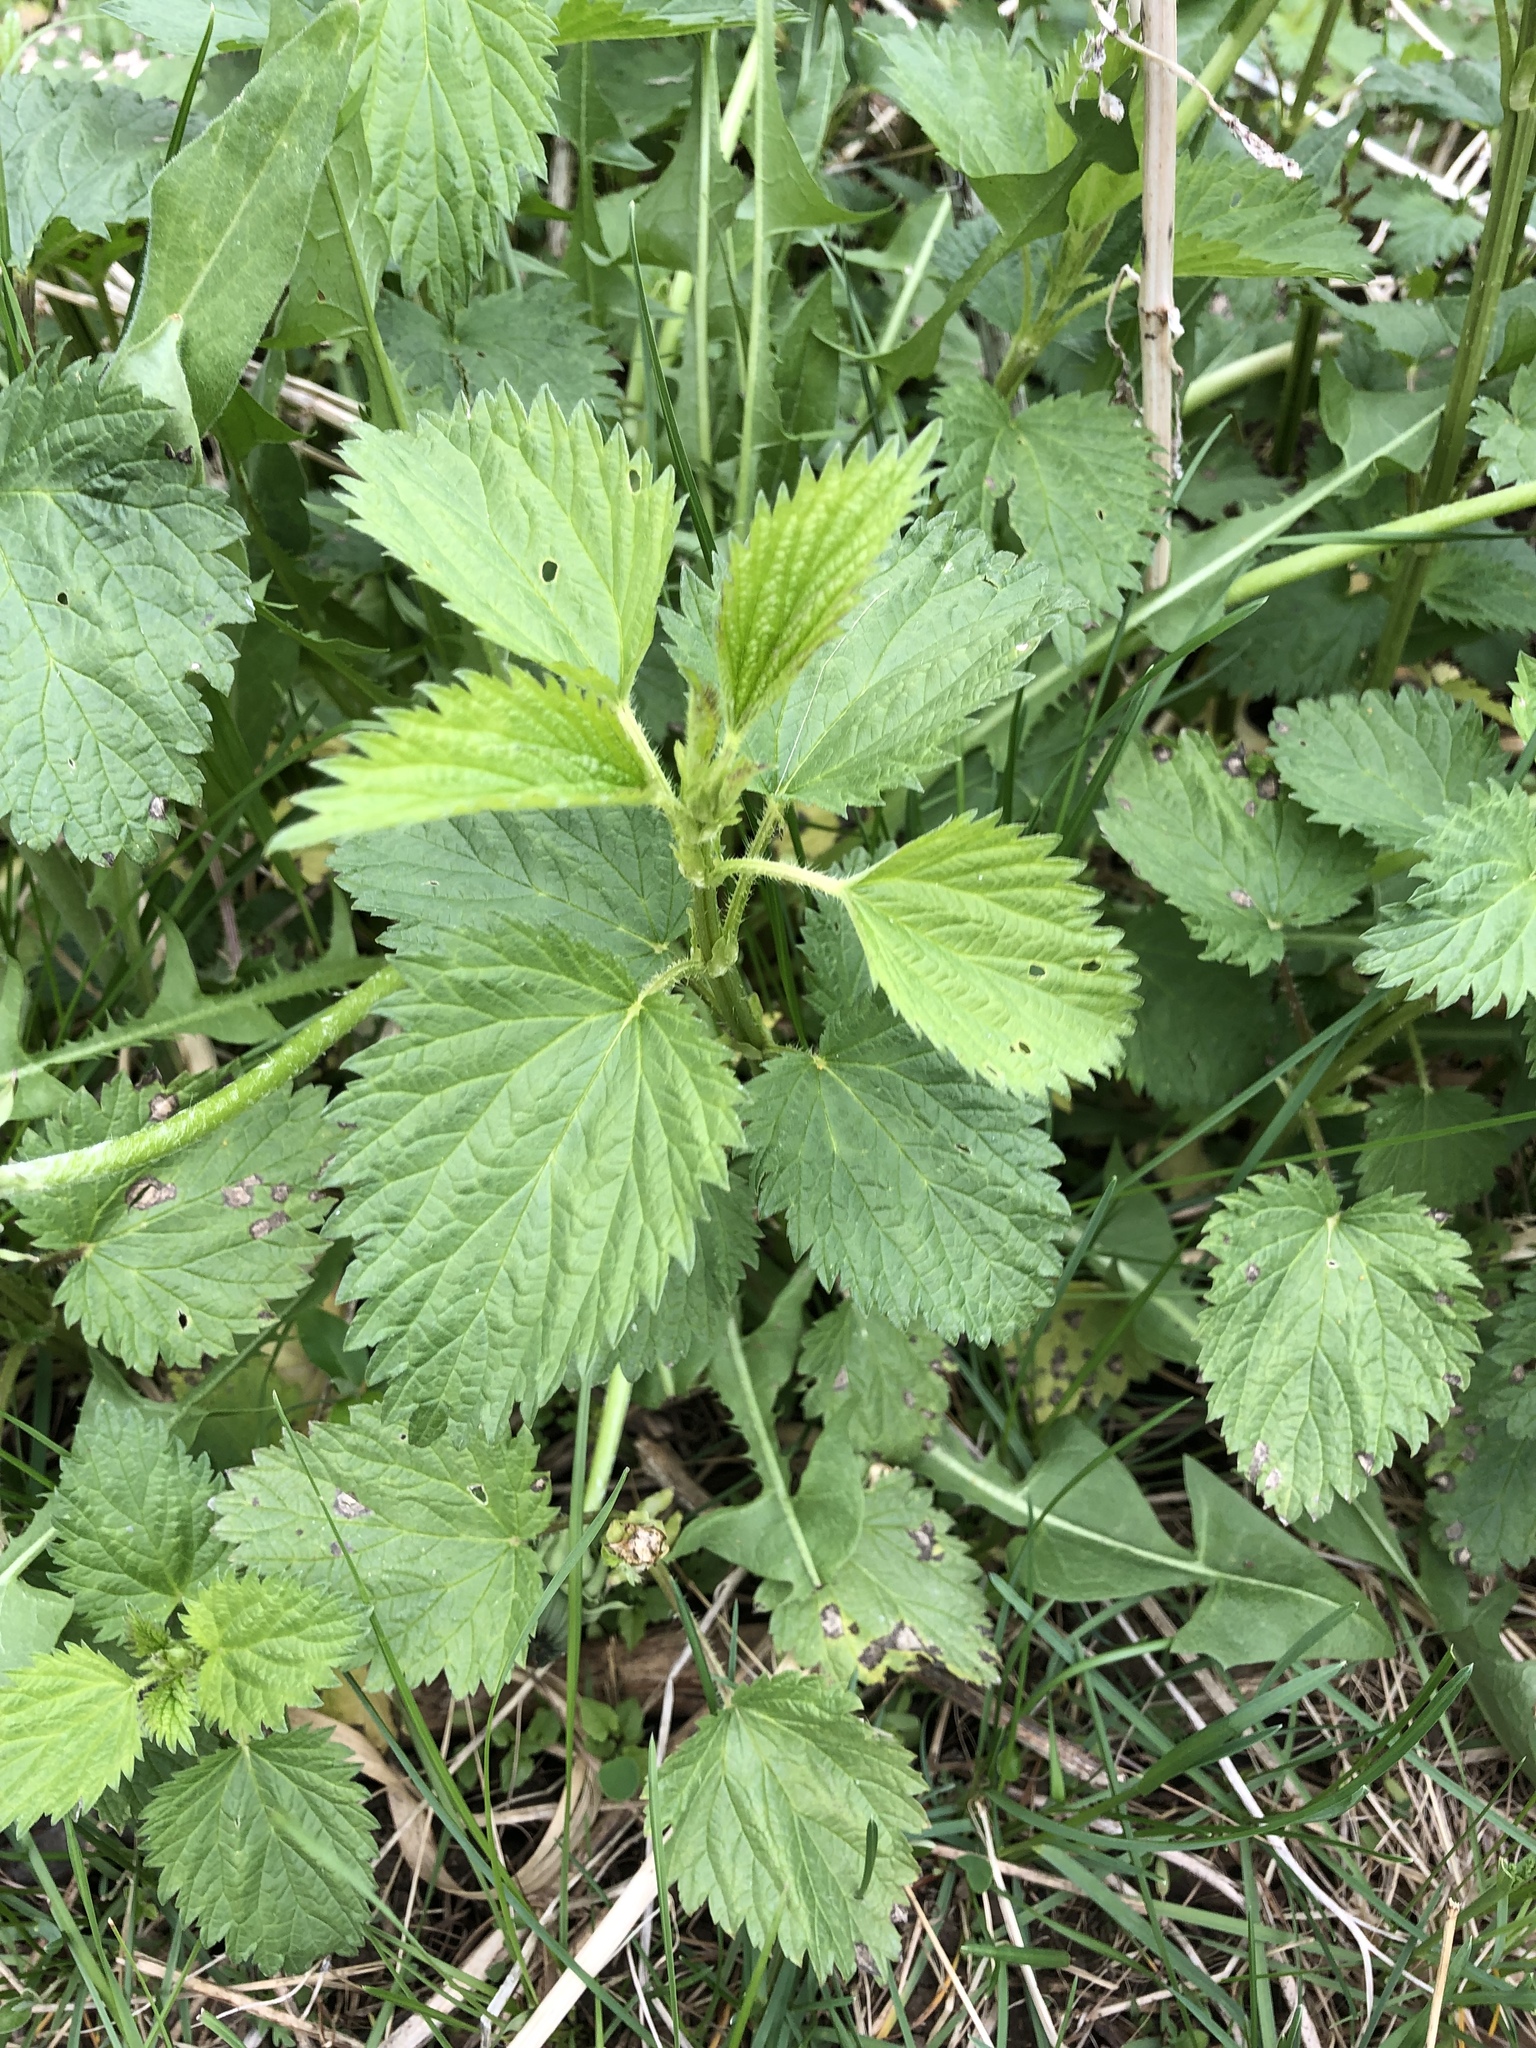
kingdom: Plantae
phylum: Tracheophyta
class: Magnoliopsida
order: Rosales
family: Urticaceae
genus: Urtica
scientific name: Urtica dioica
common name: Common nettle
